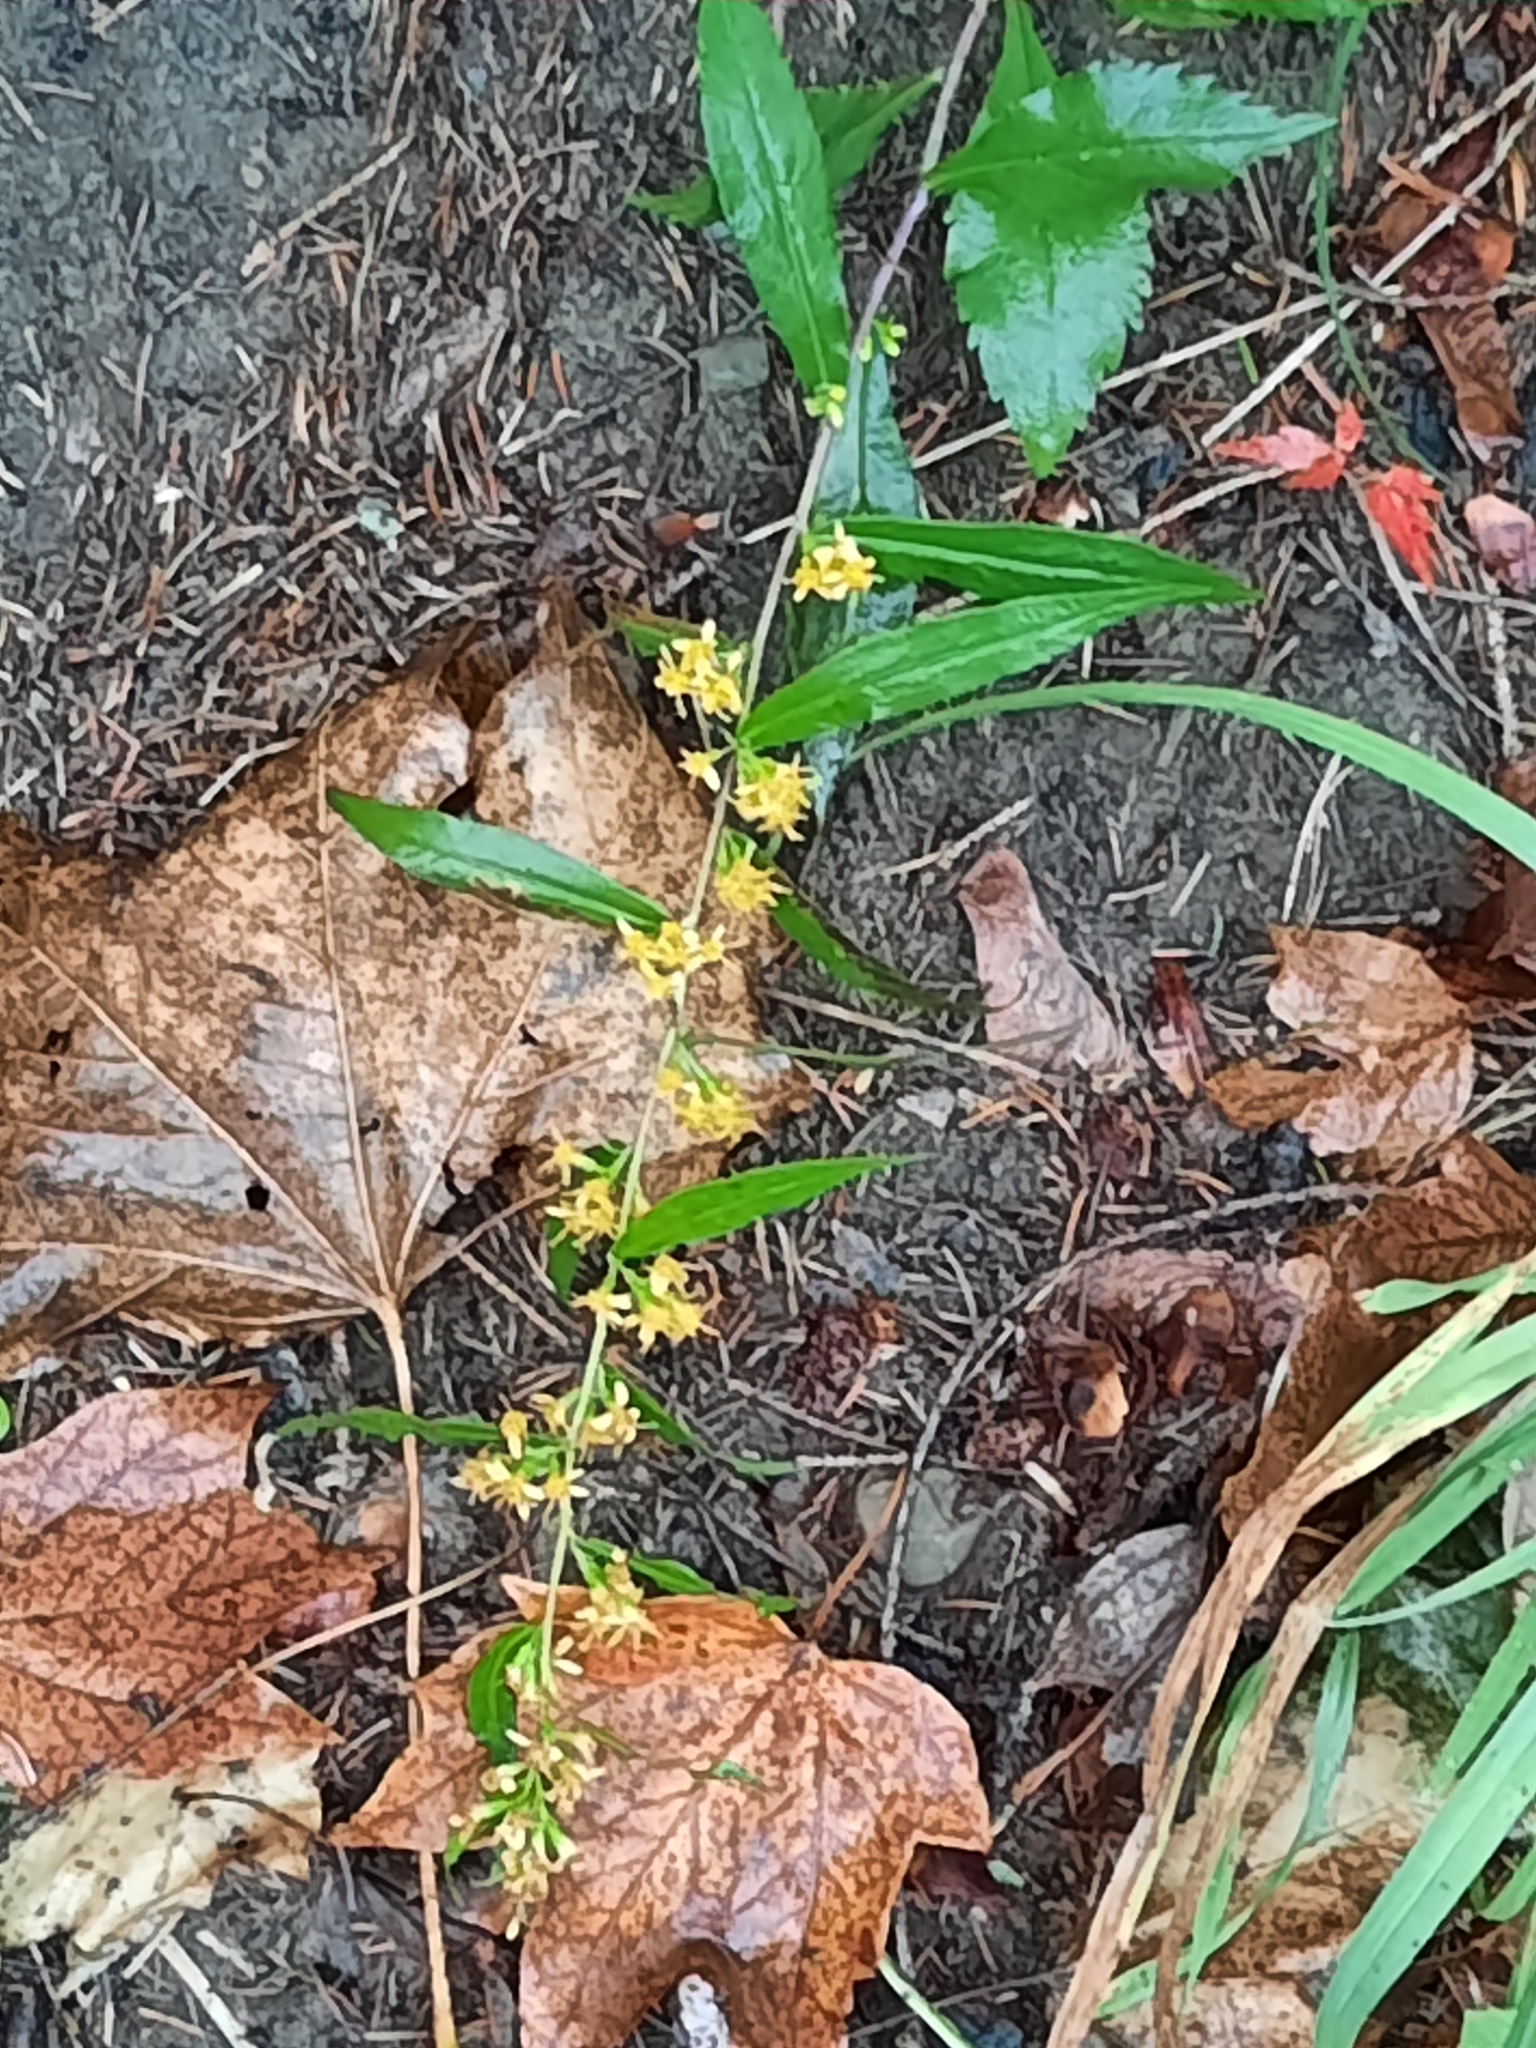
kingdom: Plantae
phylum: Tracheophyta
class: Magnoliopsida
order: Asterales
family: Asteraceae
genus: Solidago
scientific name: Solidago caesia
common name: Woodland goldenrod
